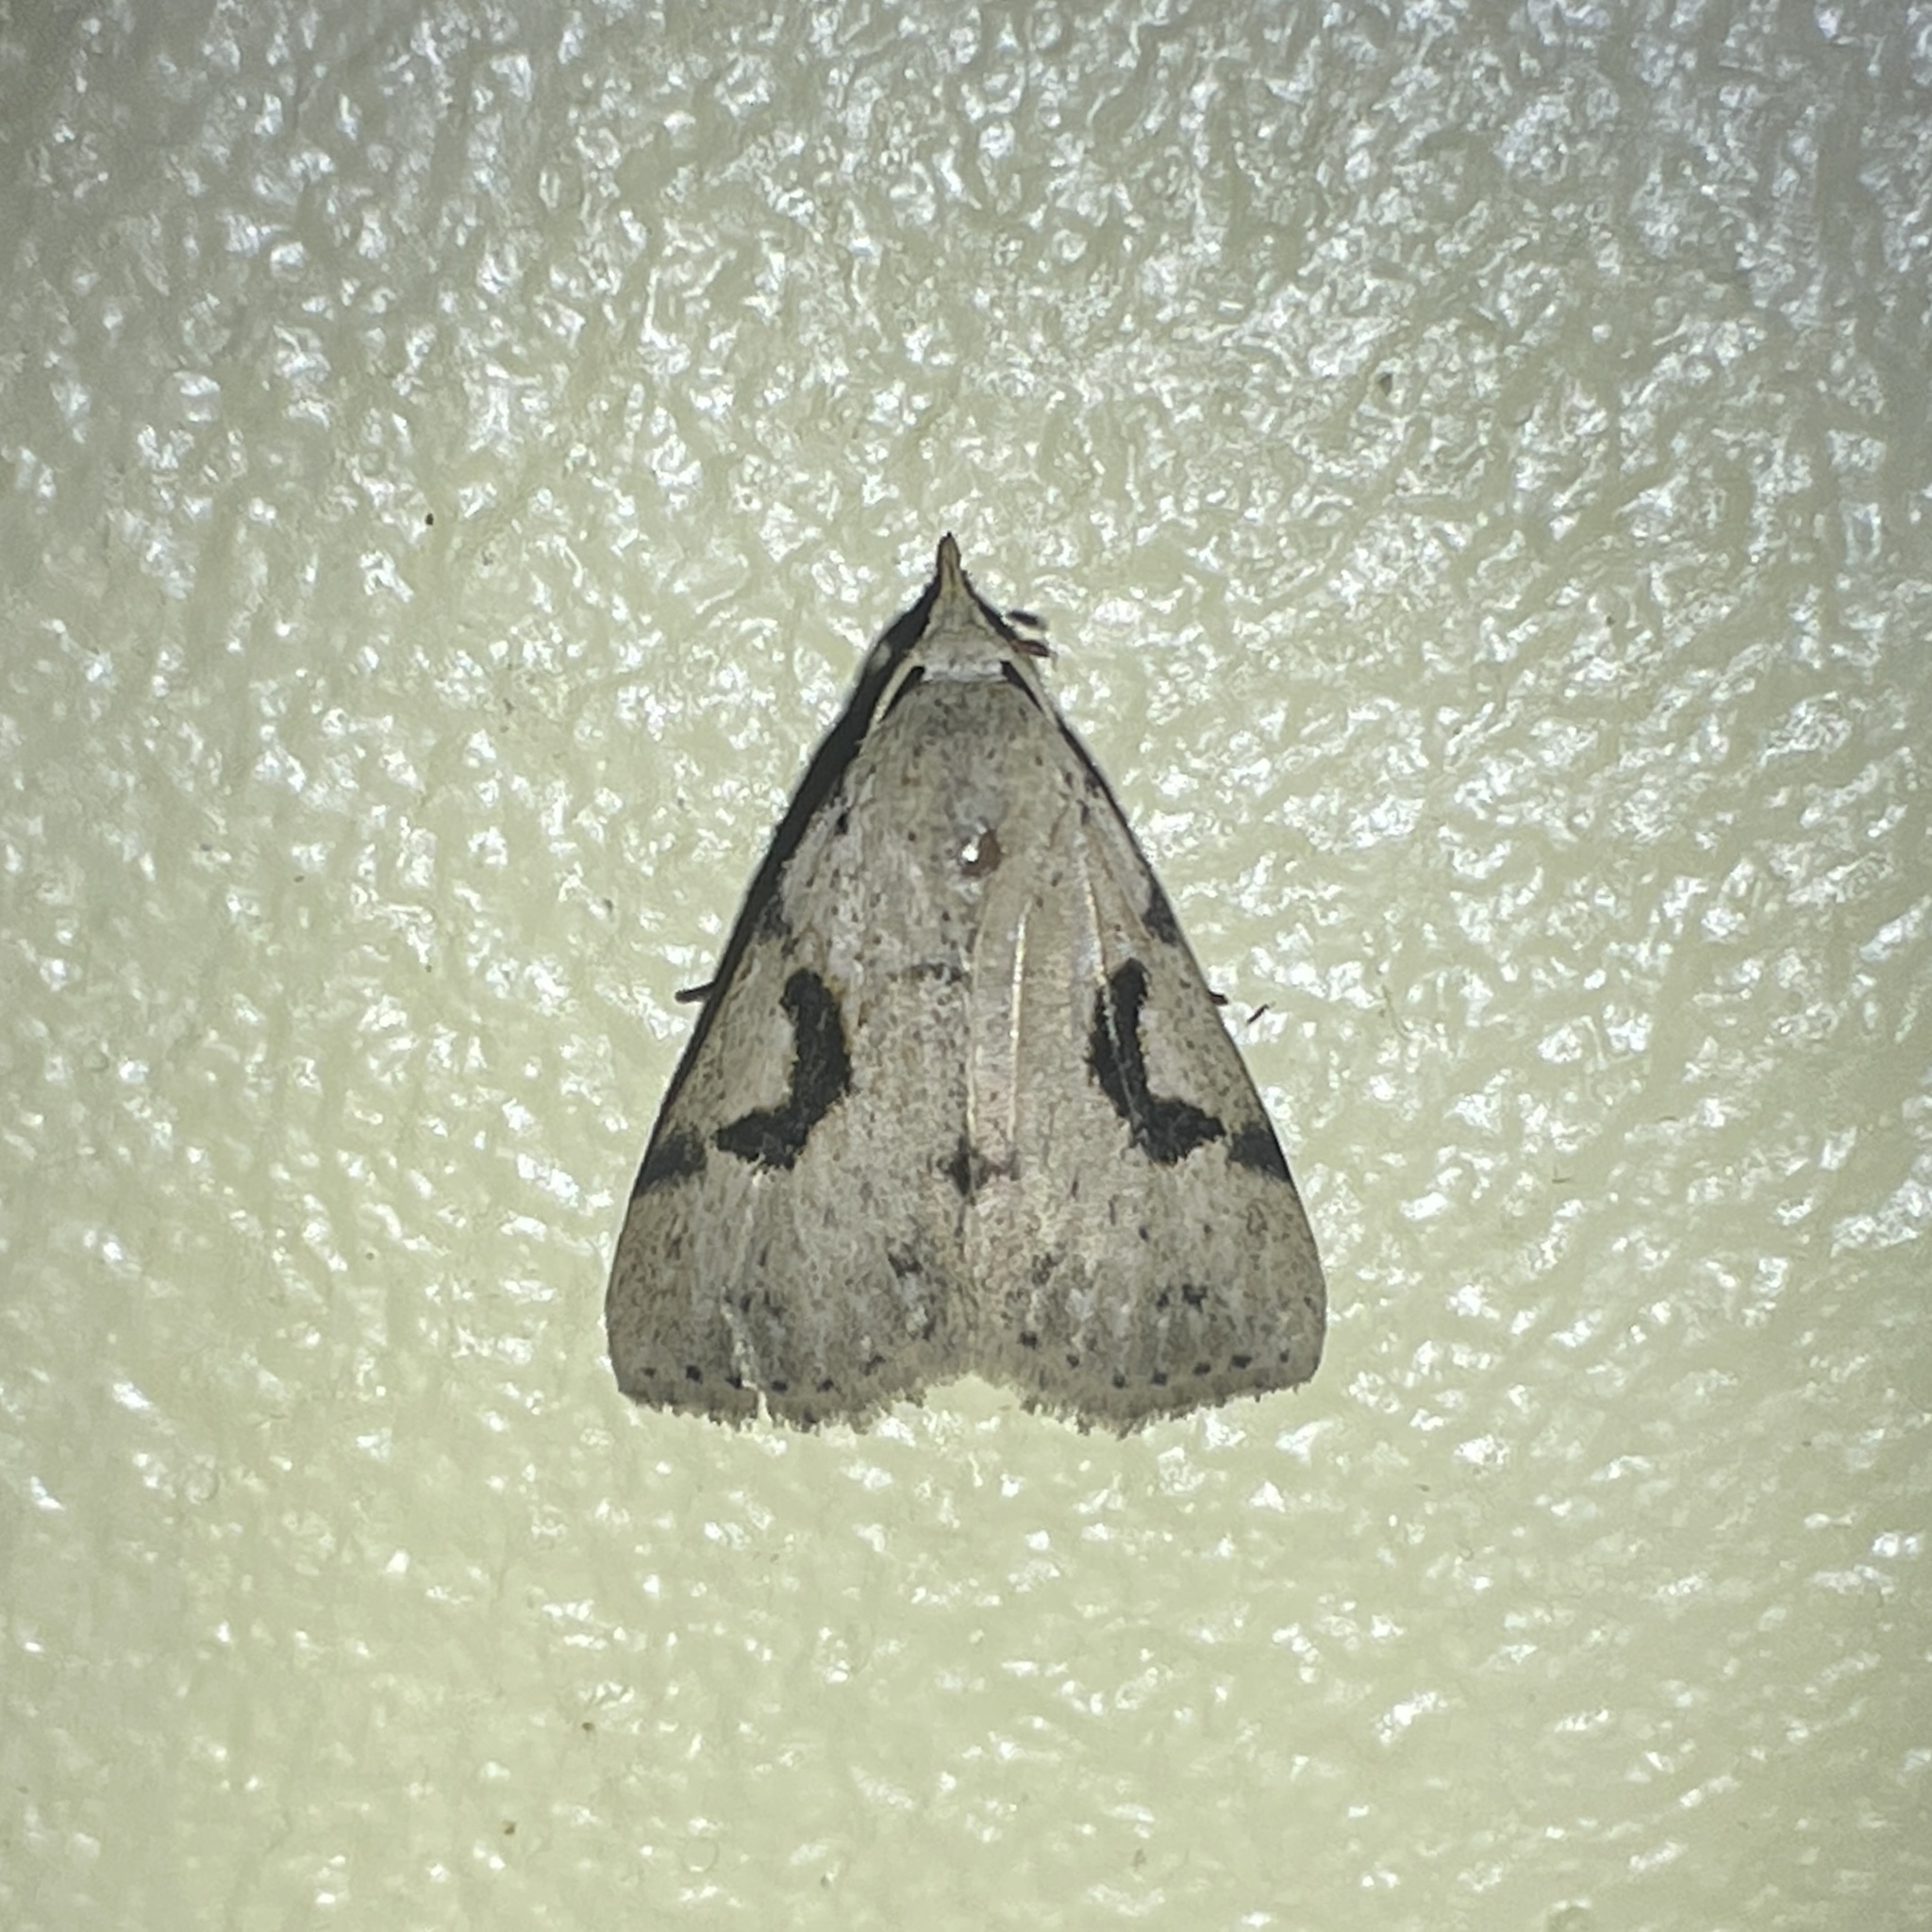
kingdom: Animalia
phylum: Arthropoda
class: Insecta
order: Lepidoptera
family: Erebidae
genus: Acanthermia
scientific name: Acanthermia concatenalis
